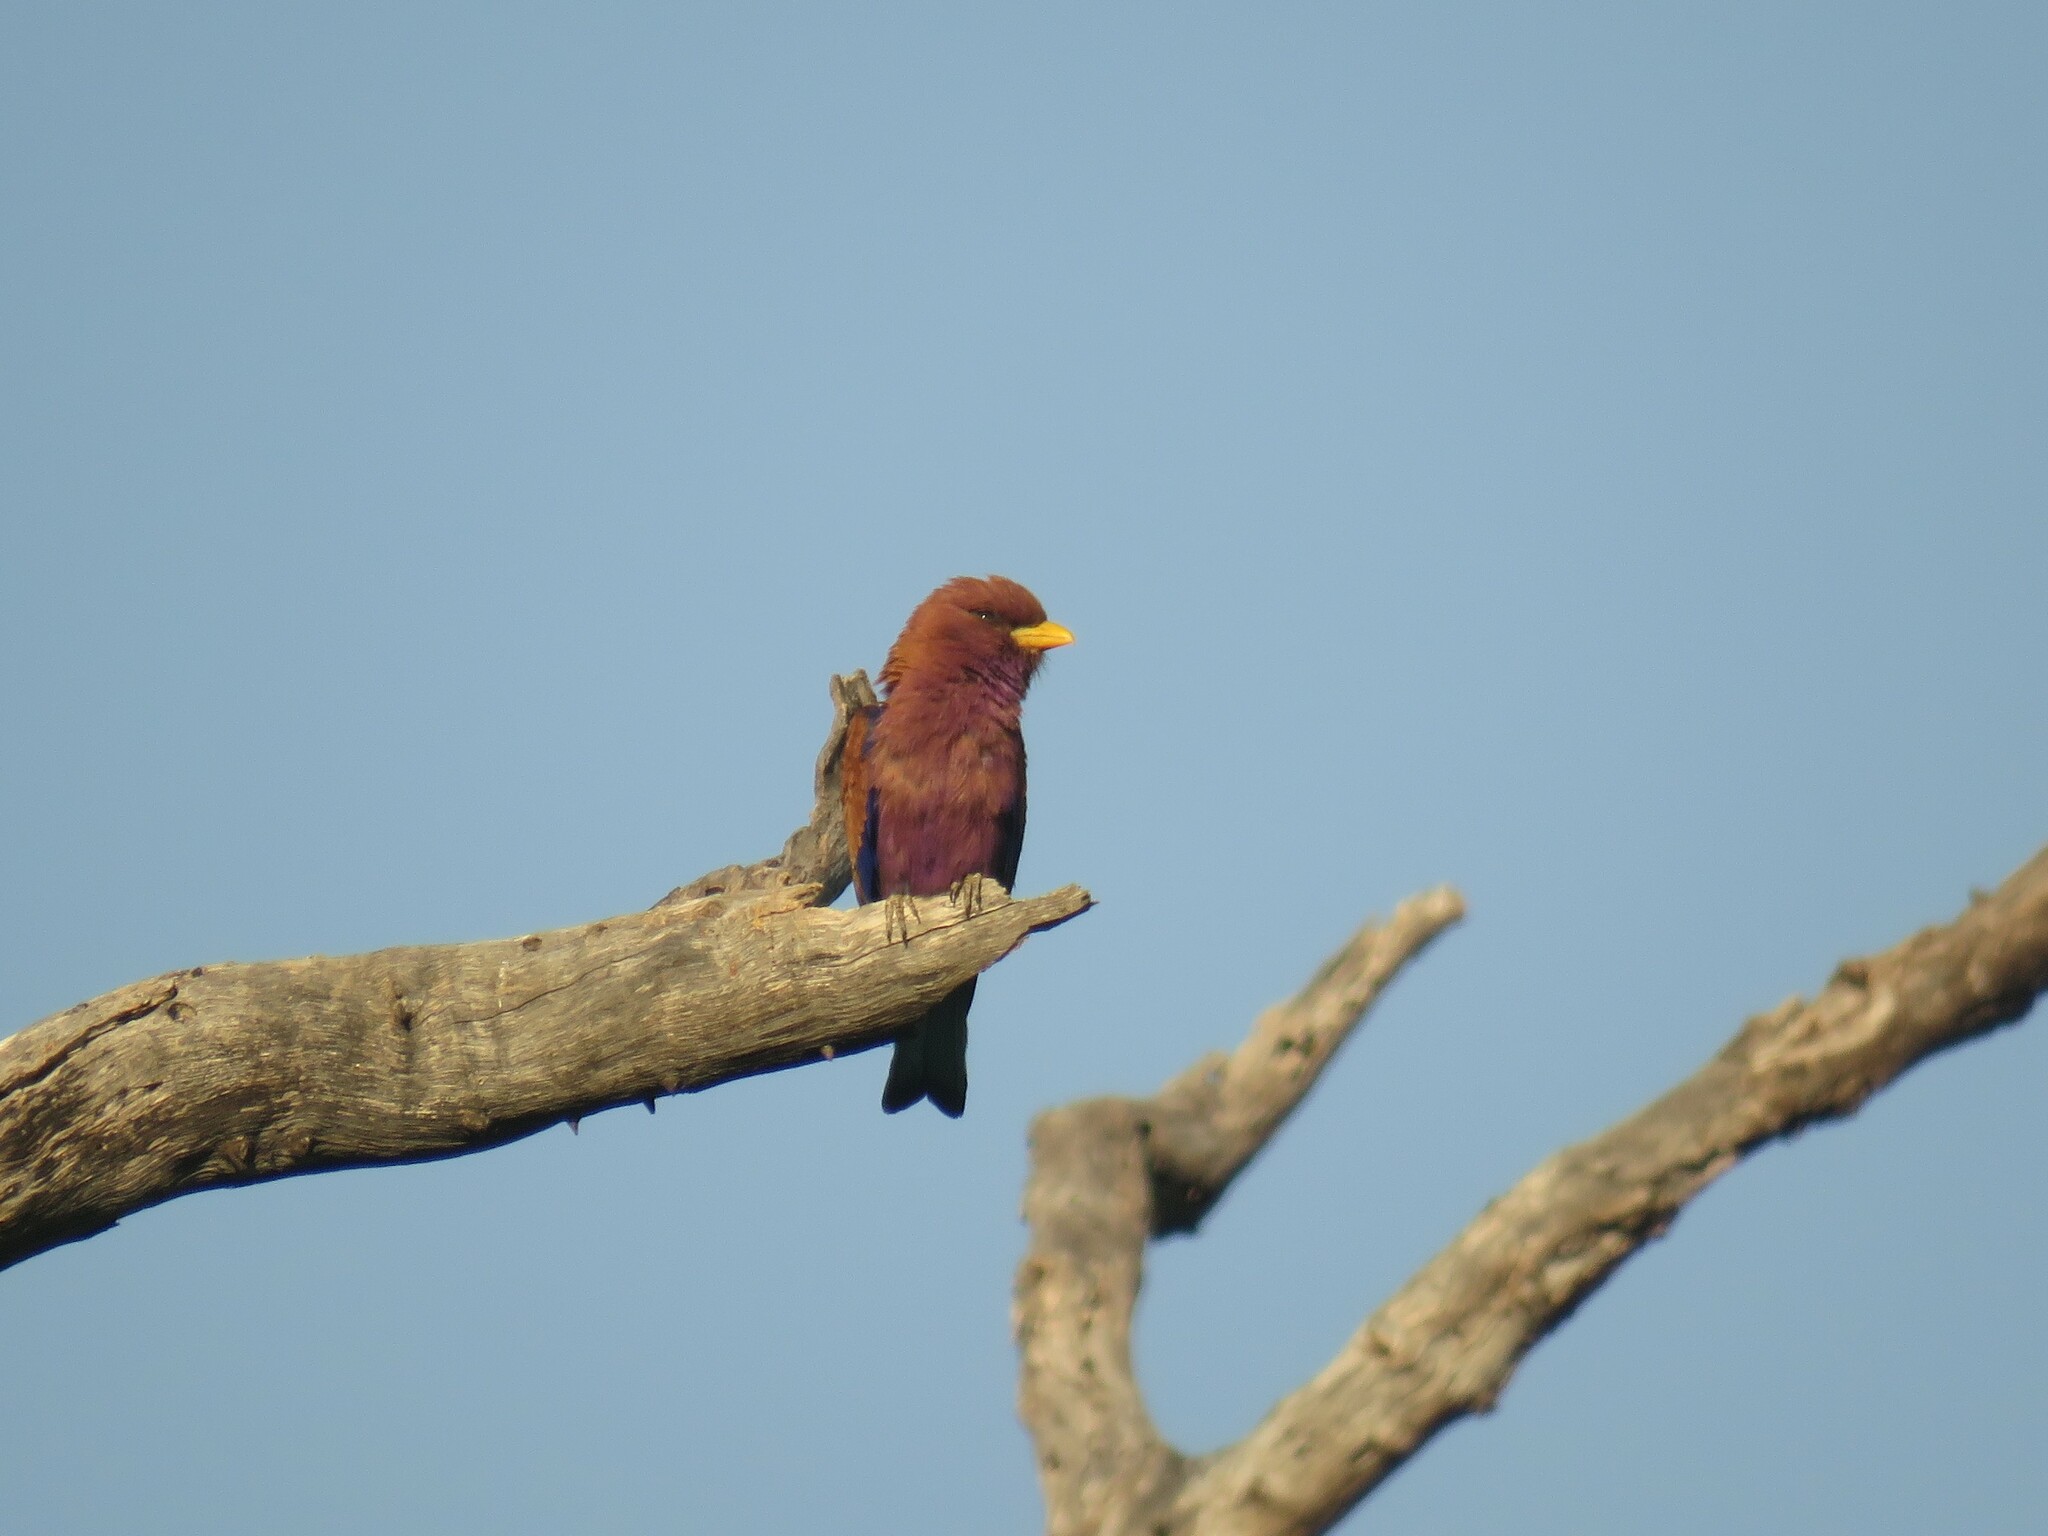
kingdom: Animalia
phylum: Chordata
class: Aves
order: Coraciiformes
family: Coraciidae
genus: Eurystomus
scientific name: Eurystomus glaucurus
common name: Broad-billed roller
